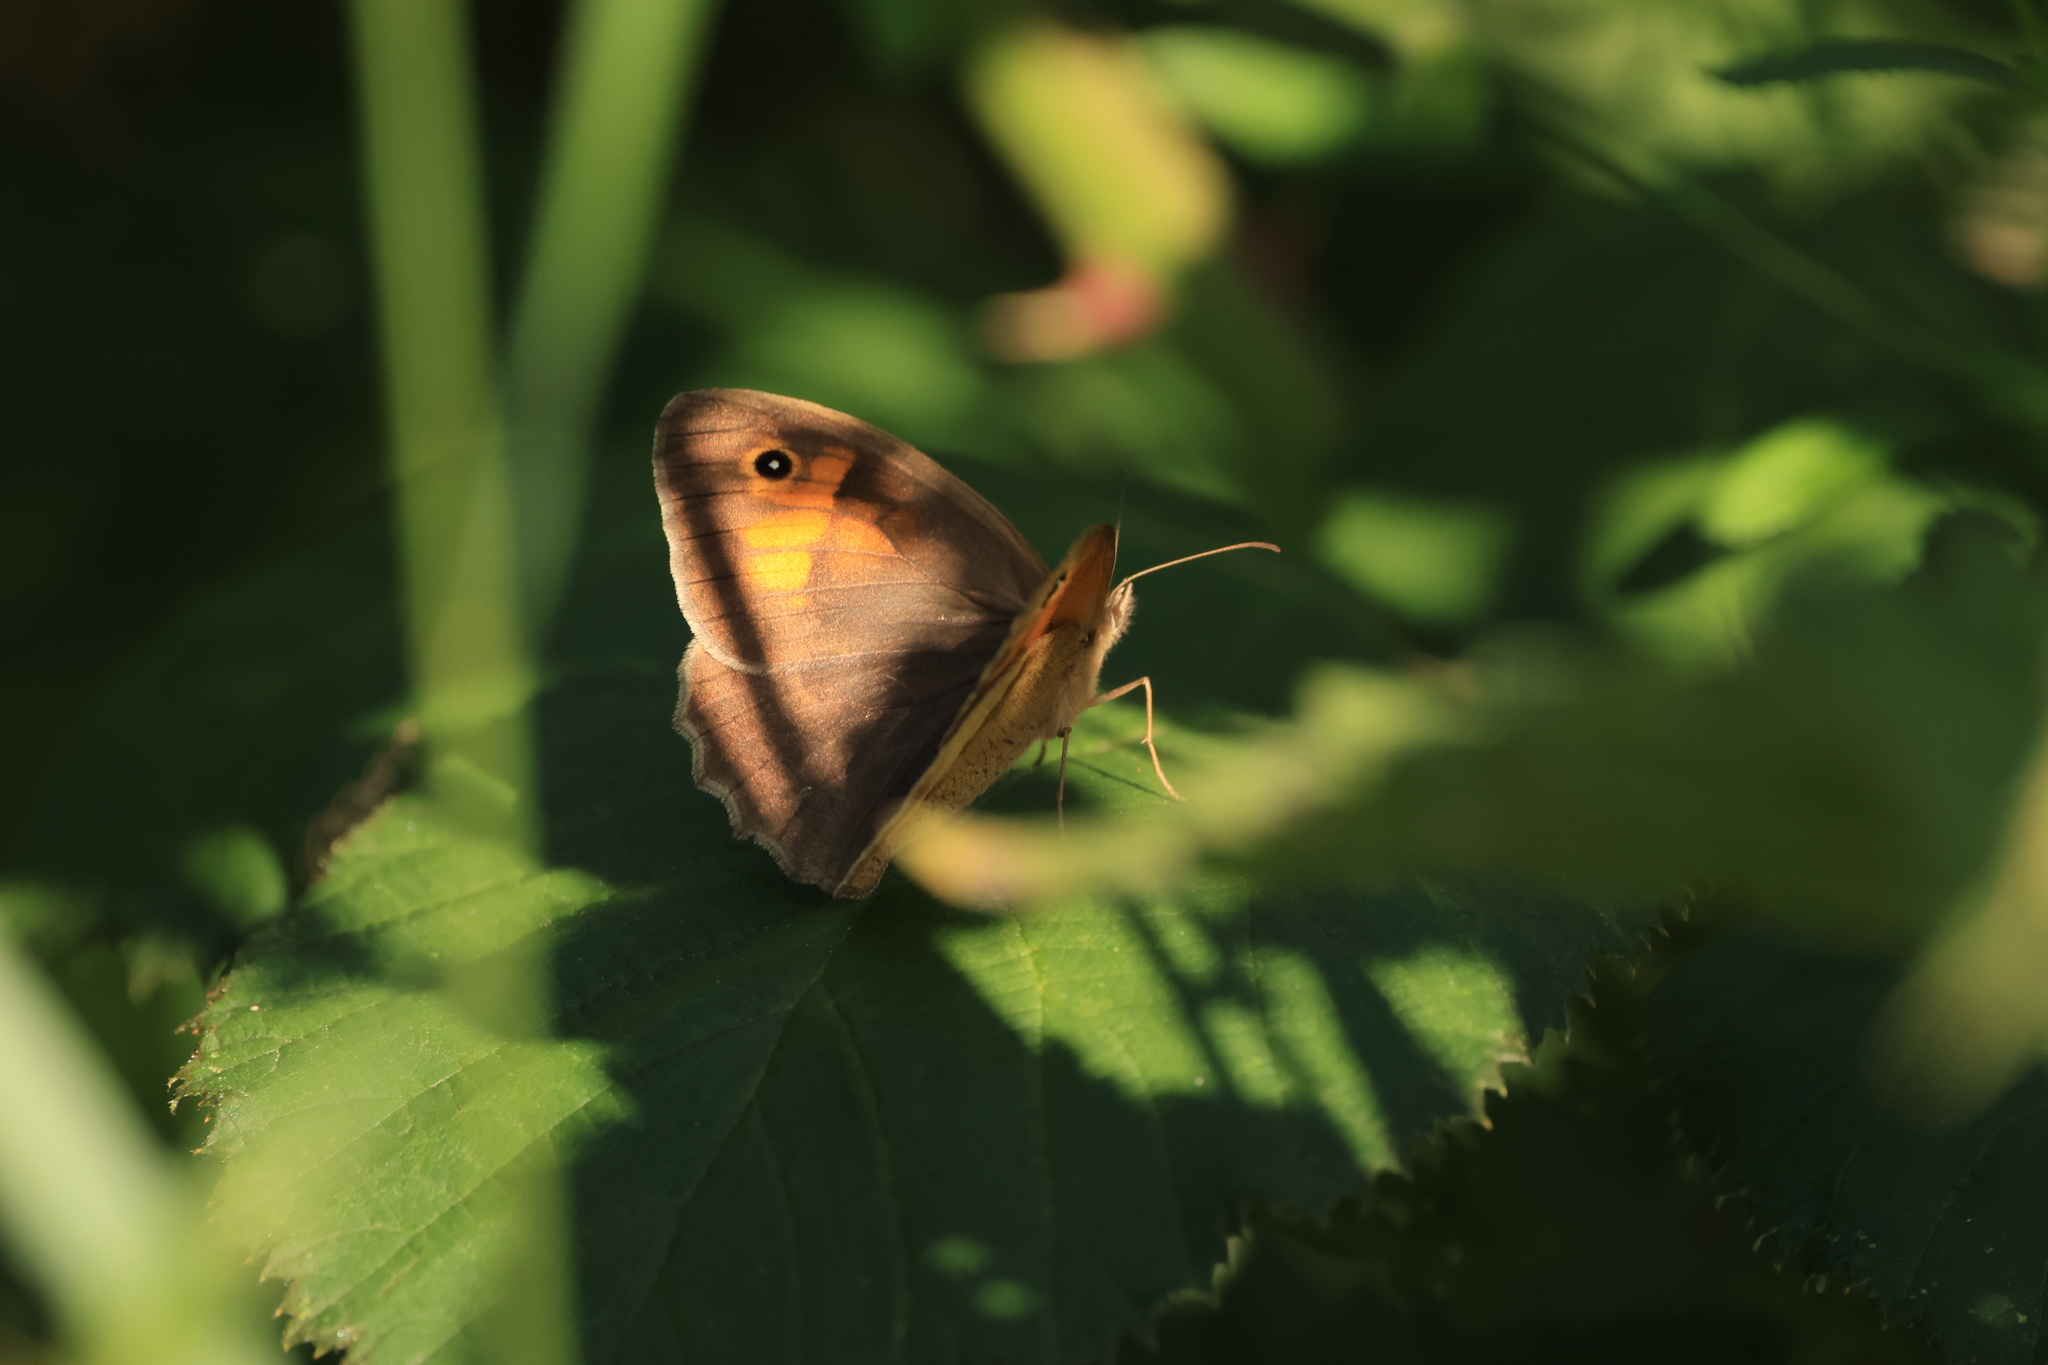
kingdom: Animalia
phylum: Arthropoda
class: Insecta
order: Lepidoptera
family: Nymphalidae
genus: Maniola
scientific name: Maniola jurtina
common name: Meadow brown
